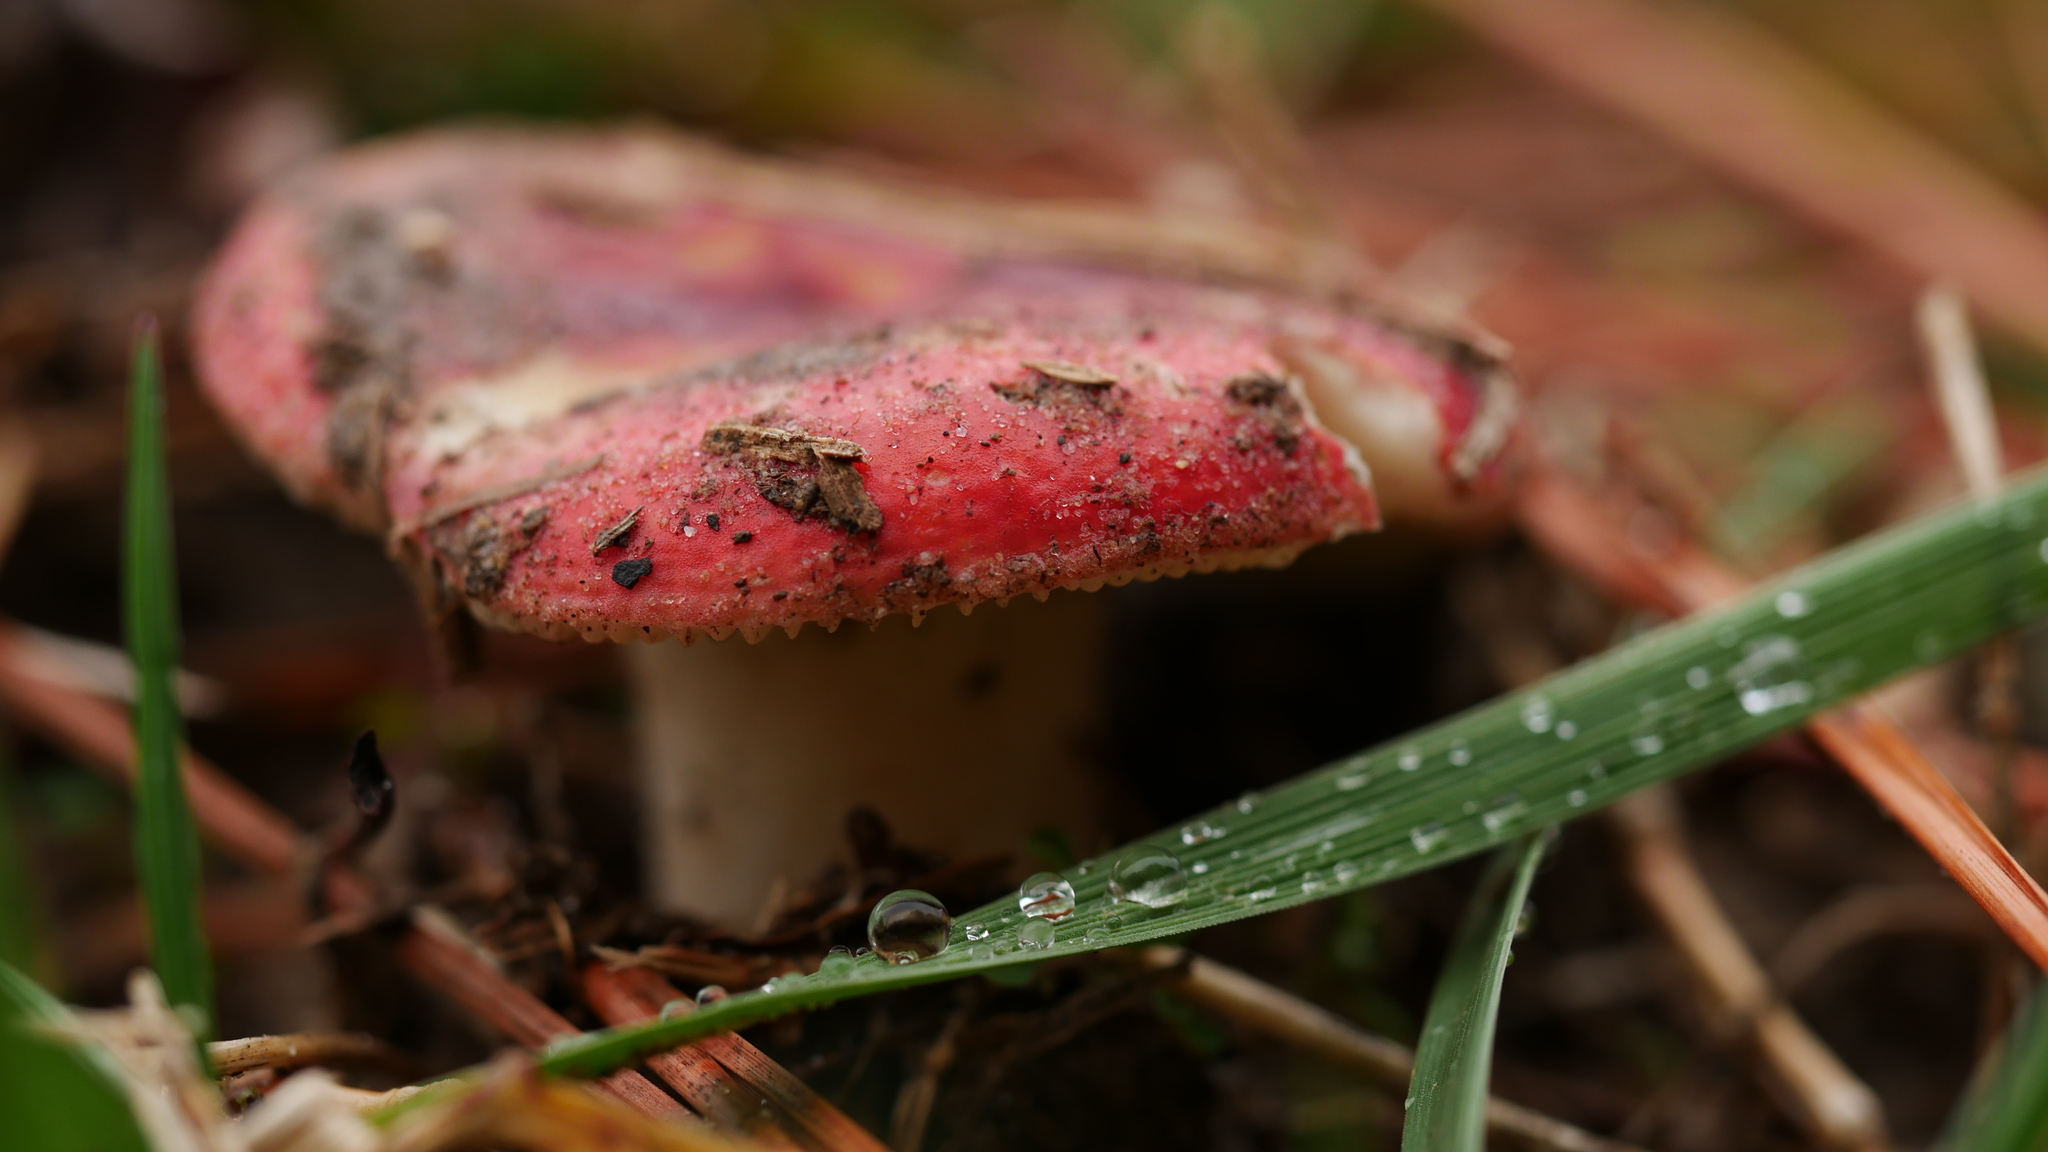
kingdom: Fungi
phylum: Basidiomycota
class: Agaricomycetes
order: Russulales
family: Russulaceae
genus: Russula
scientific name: Russula
